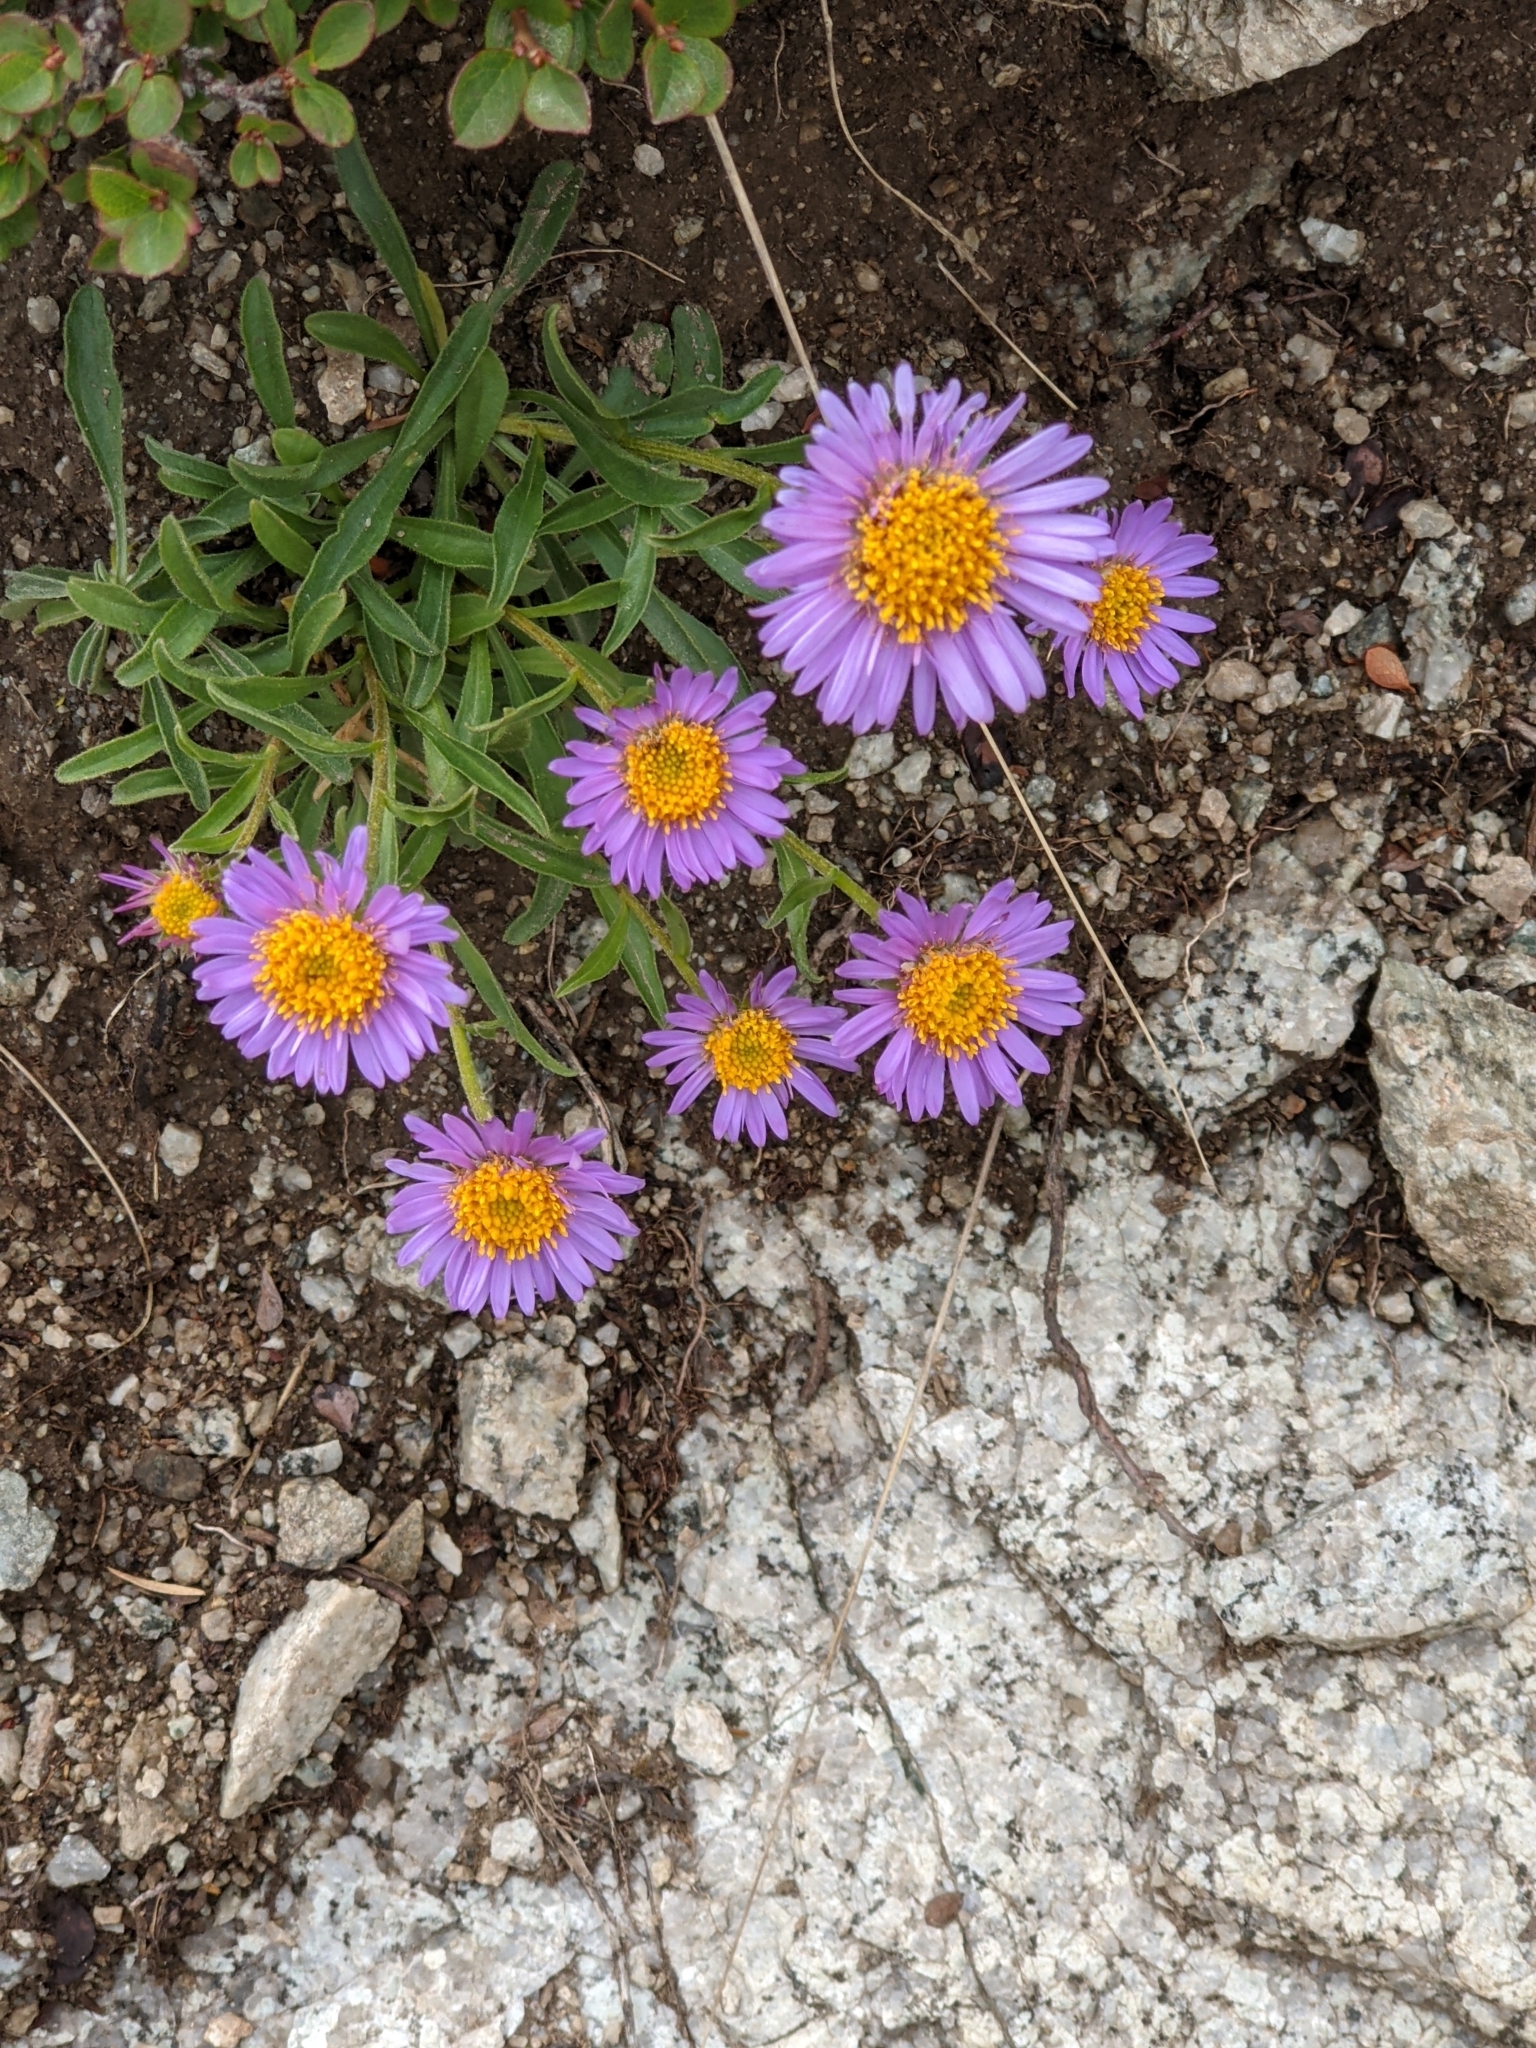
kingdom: Plantae
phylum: Tracheophyta
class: Magnoliopsida
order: Asterales
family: Asteraceae
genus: Aster
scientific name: Aster alpinus
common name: Alpine aster
